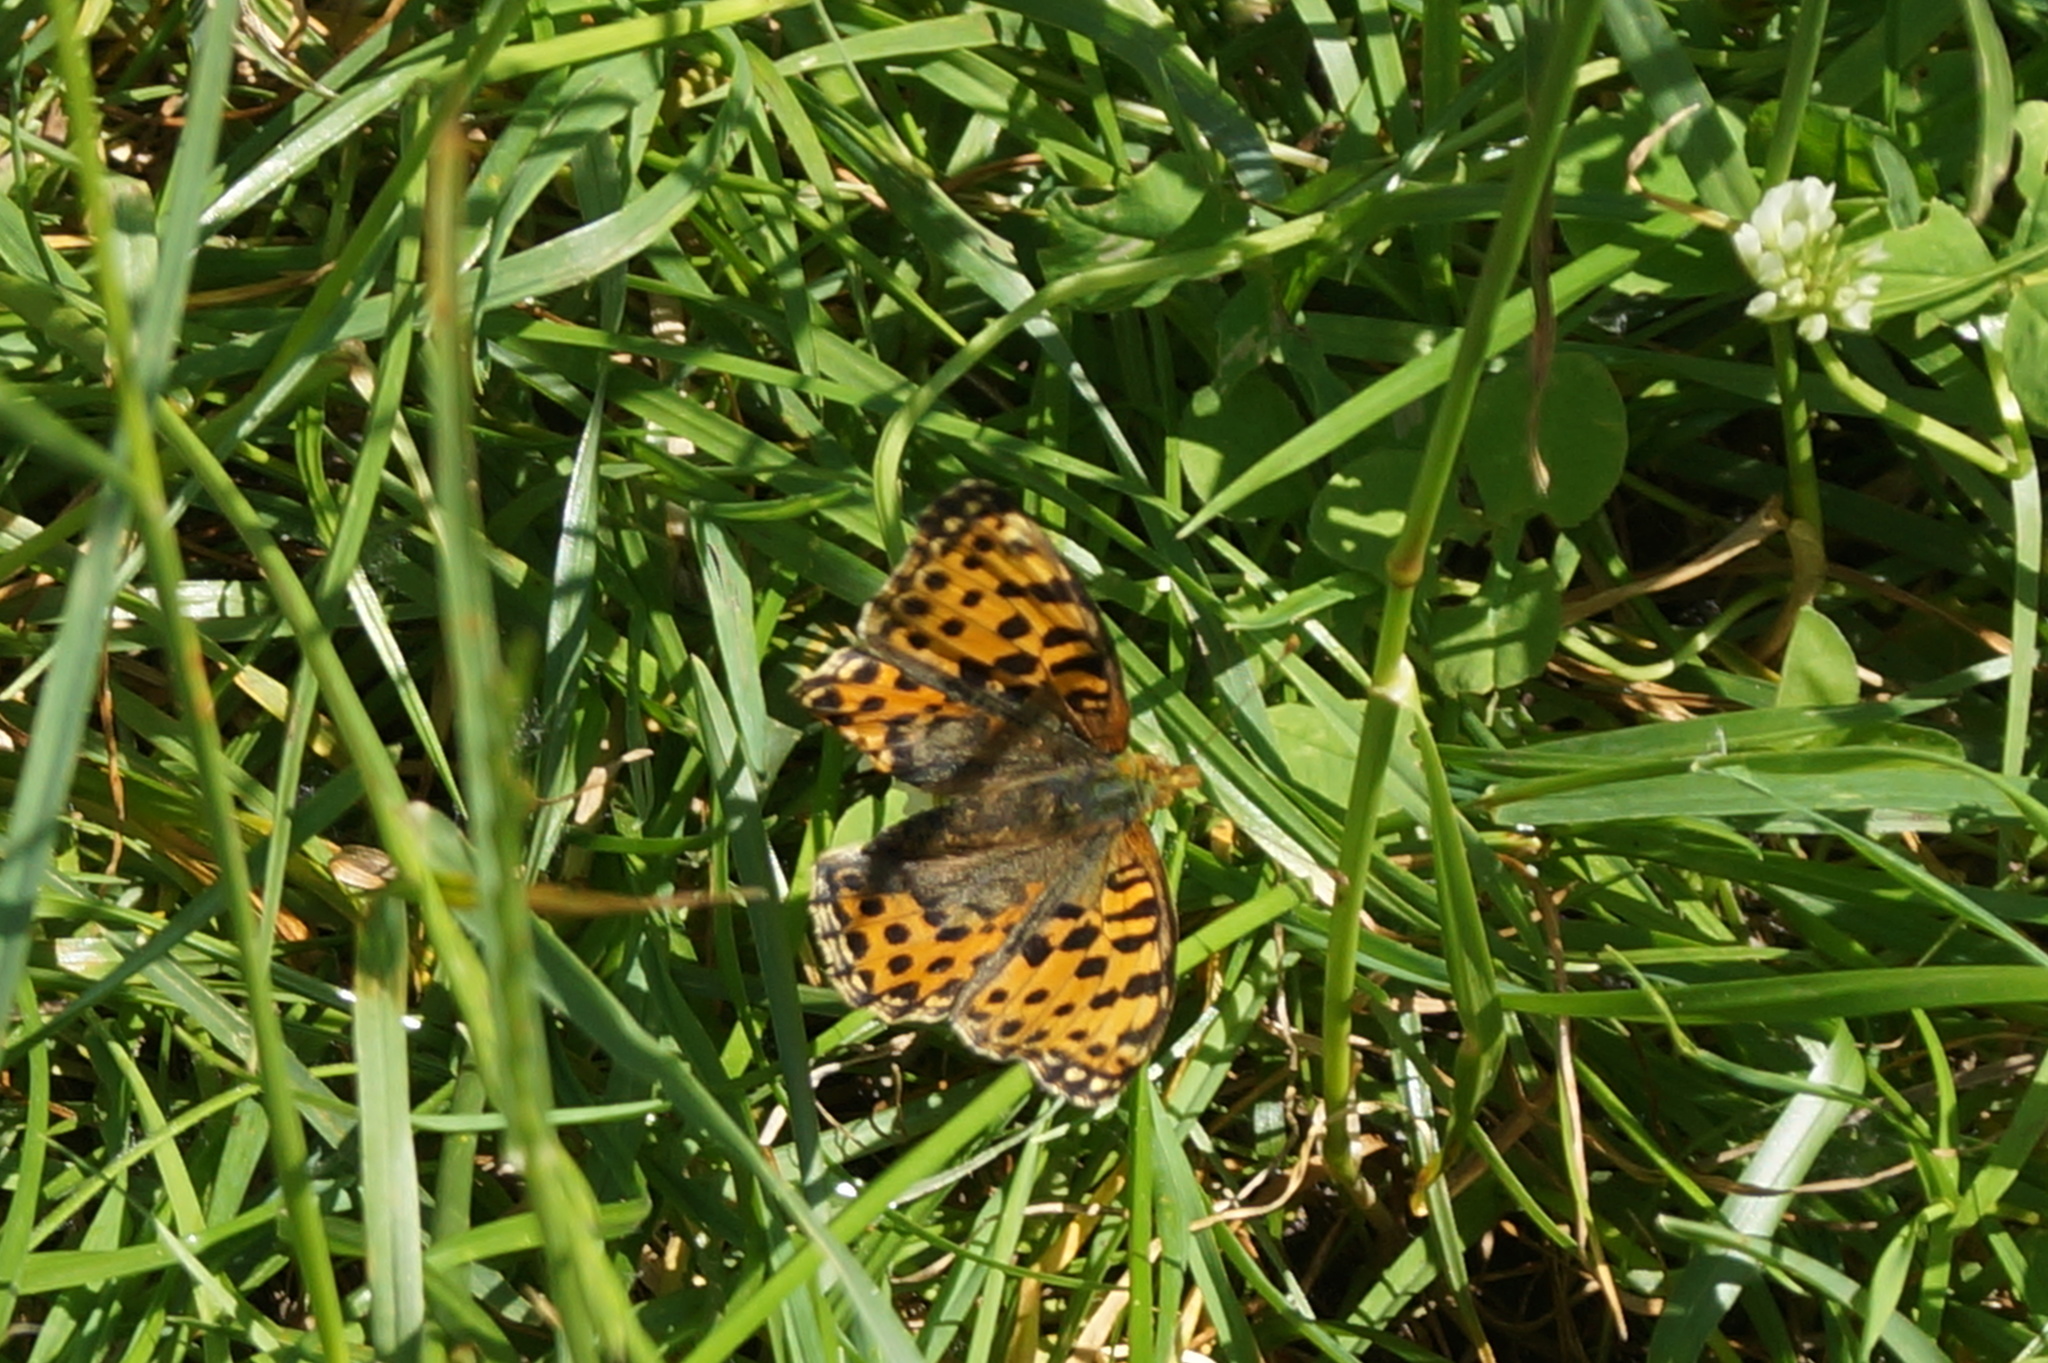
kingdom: Animalia
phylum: Arthropoda
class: Insecta
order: Lepidoptera
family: Nymphalidae
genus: Issoria
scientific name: Issoria lathonia
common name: Queen of spain fritillary
